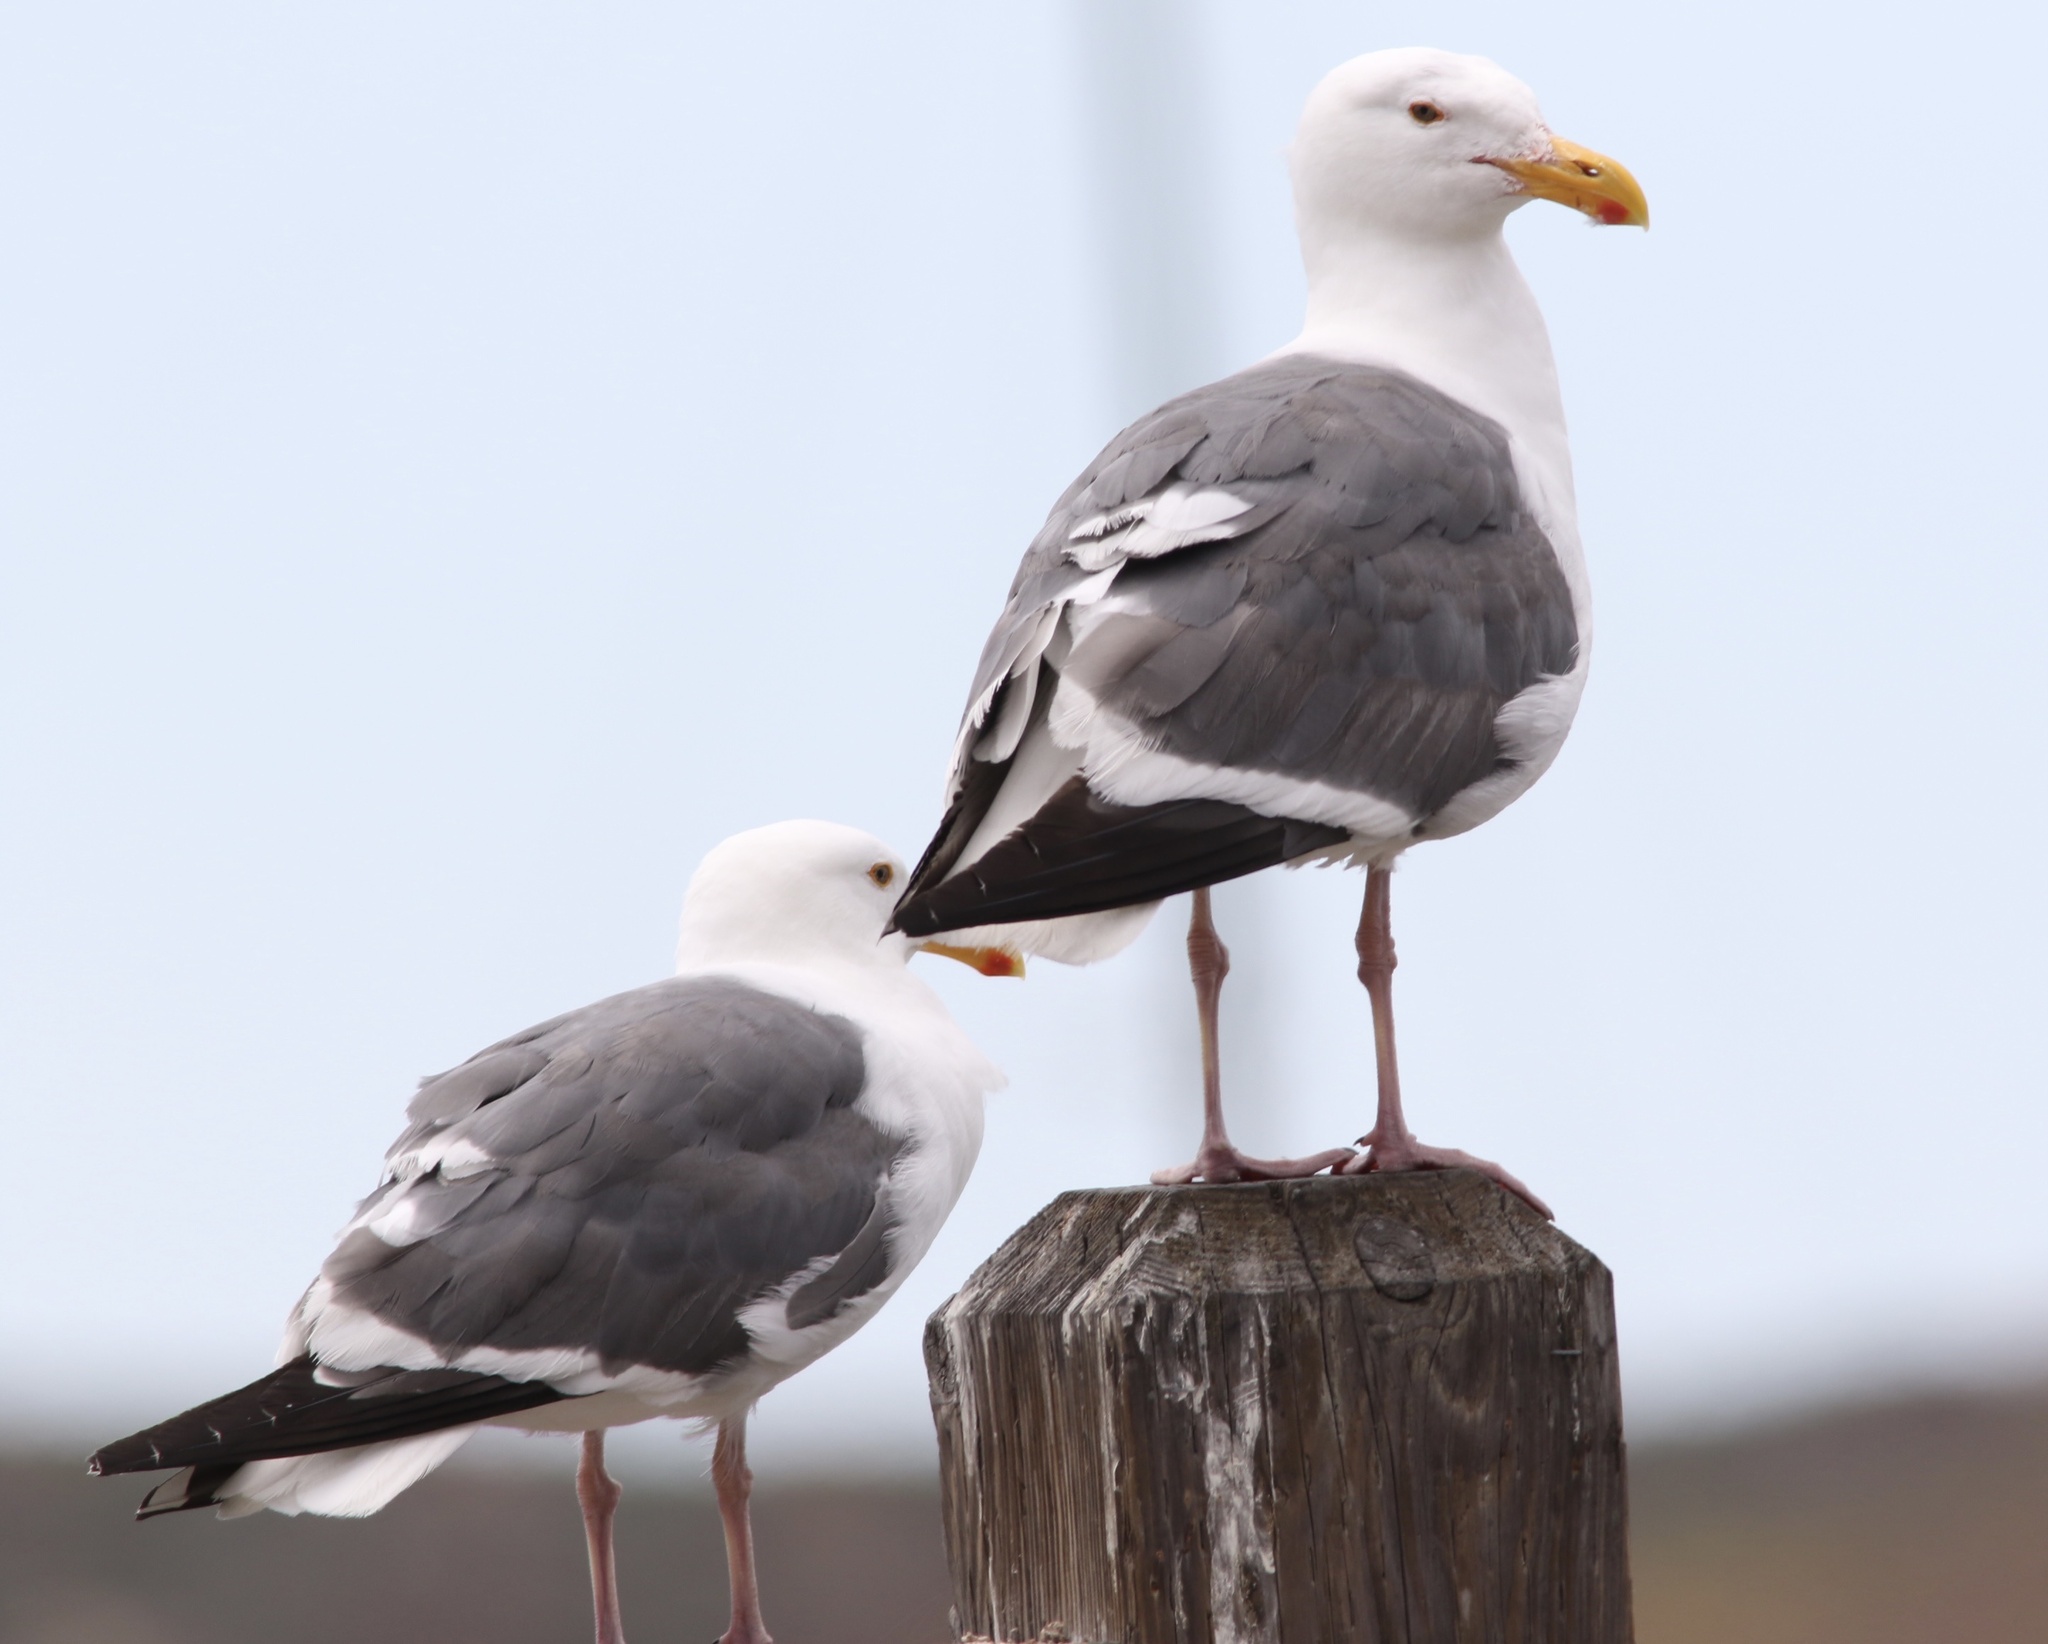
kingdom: Animalia
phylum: Chordata
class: Aves
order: Charadriiformes
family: Laridae
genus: Larus
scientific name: Larus occidentalis
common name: Western gull
